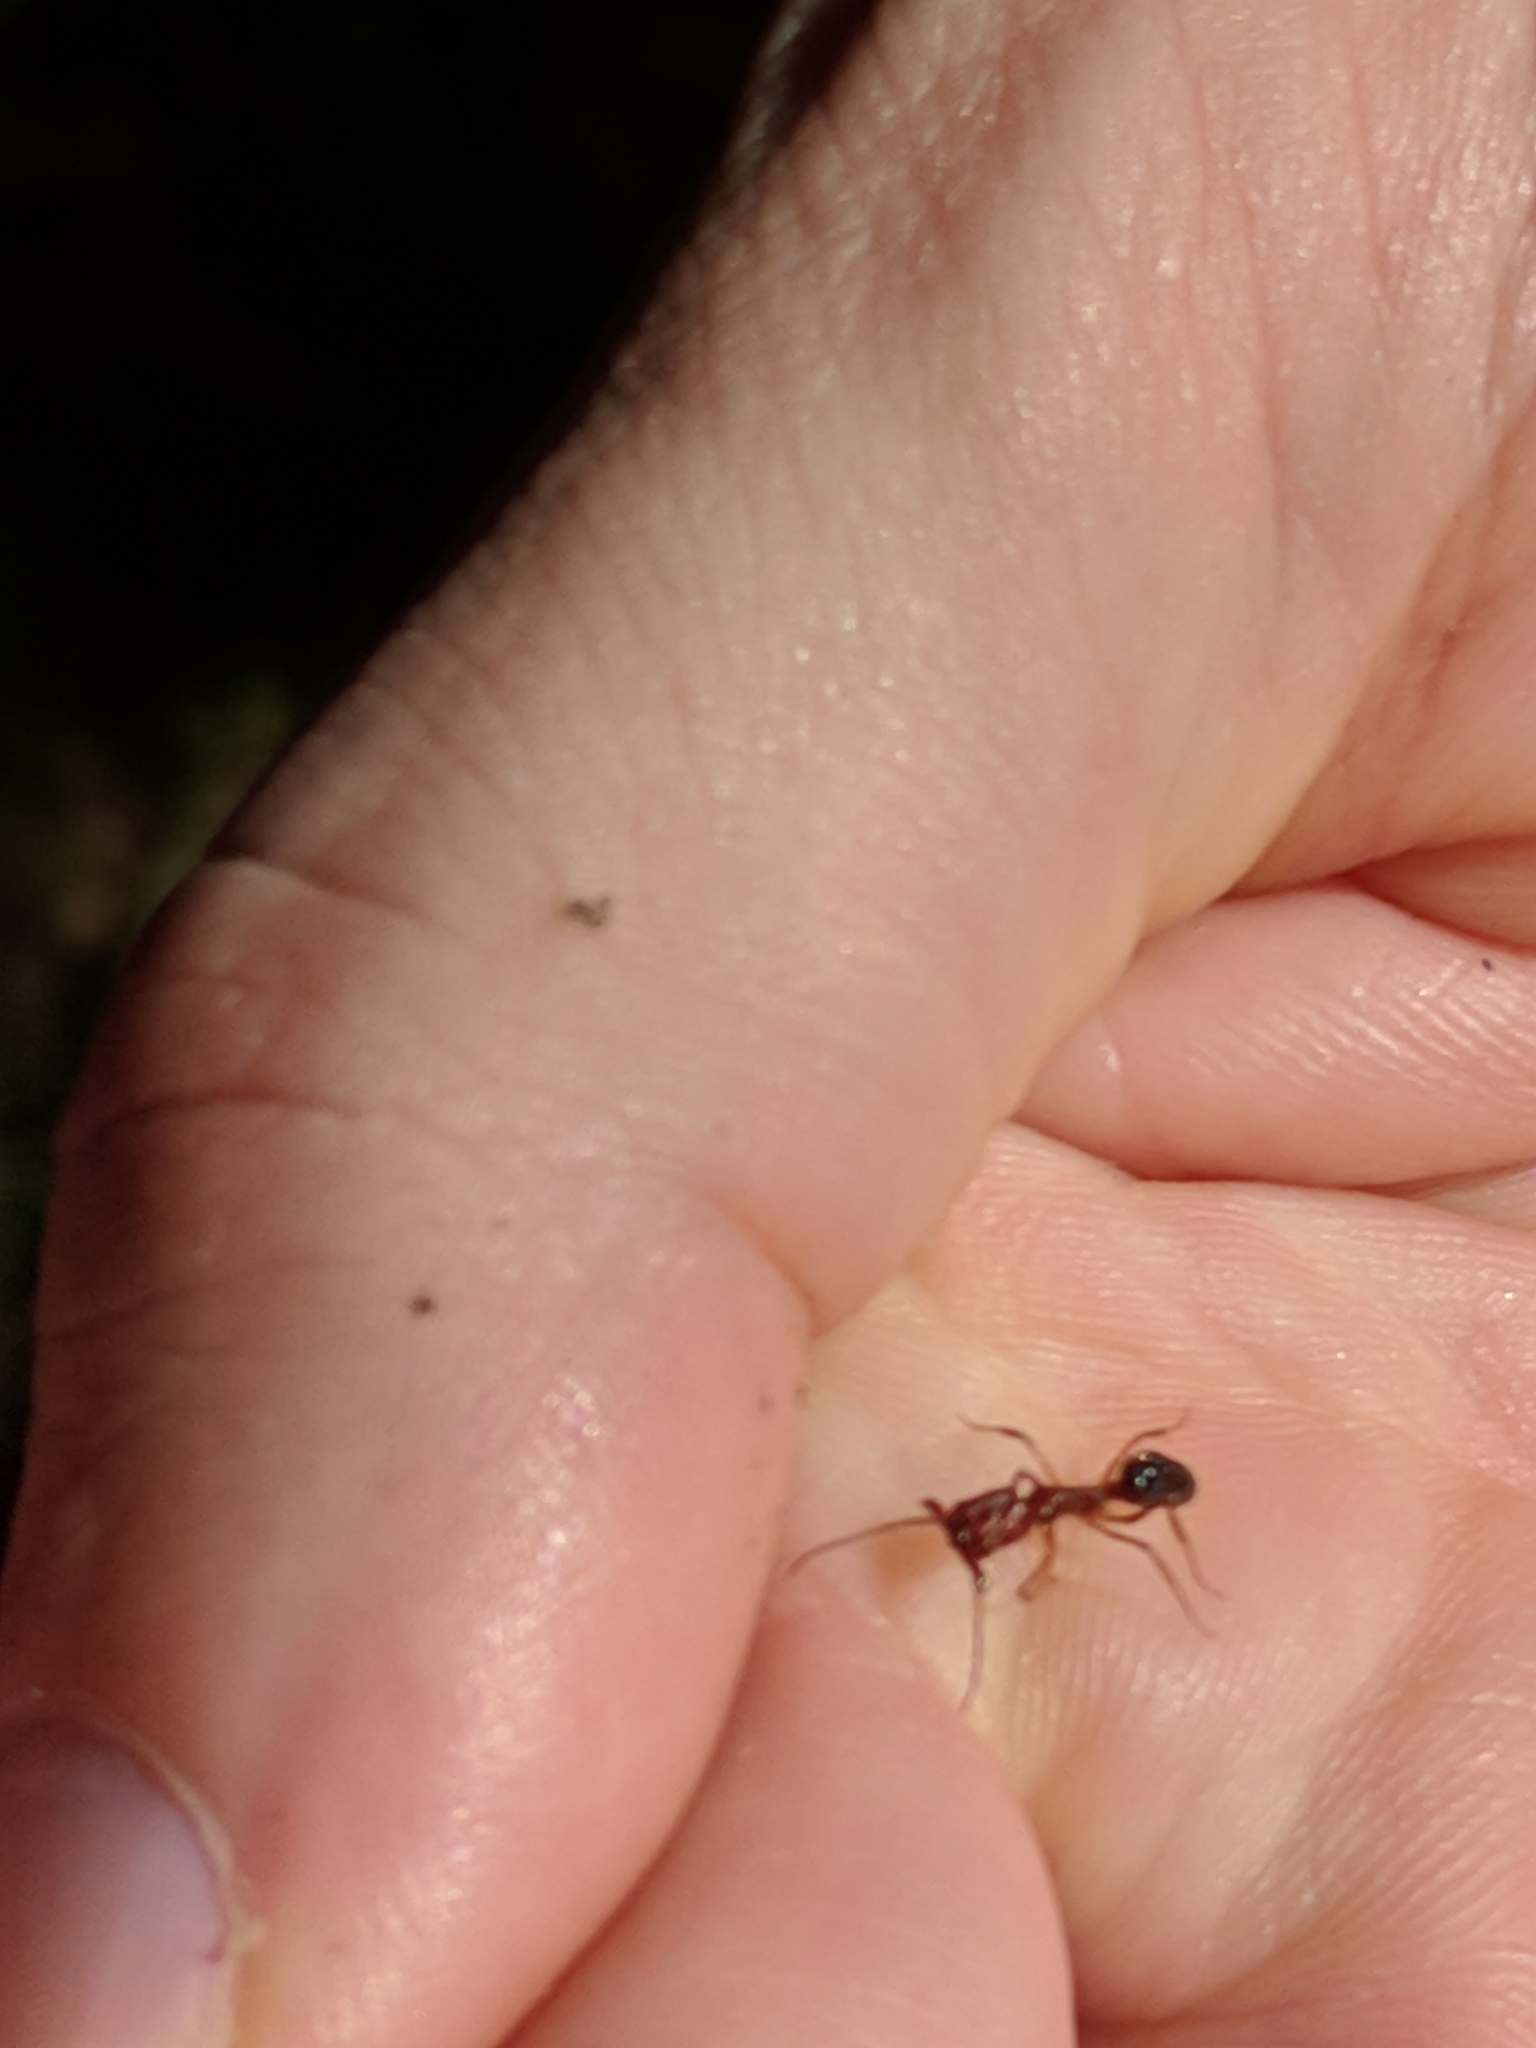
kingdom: Animalia
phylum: Arthropoda
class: Insecta
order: Hymenoptera
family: Formicidae
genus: Odontomachus
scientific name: Odontomachus clarus
